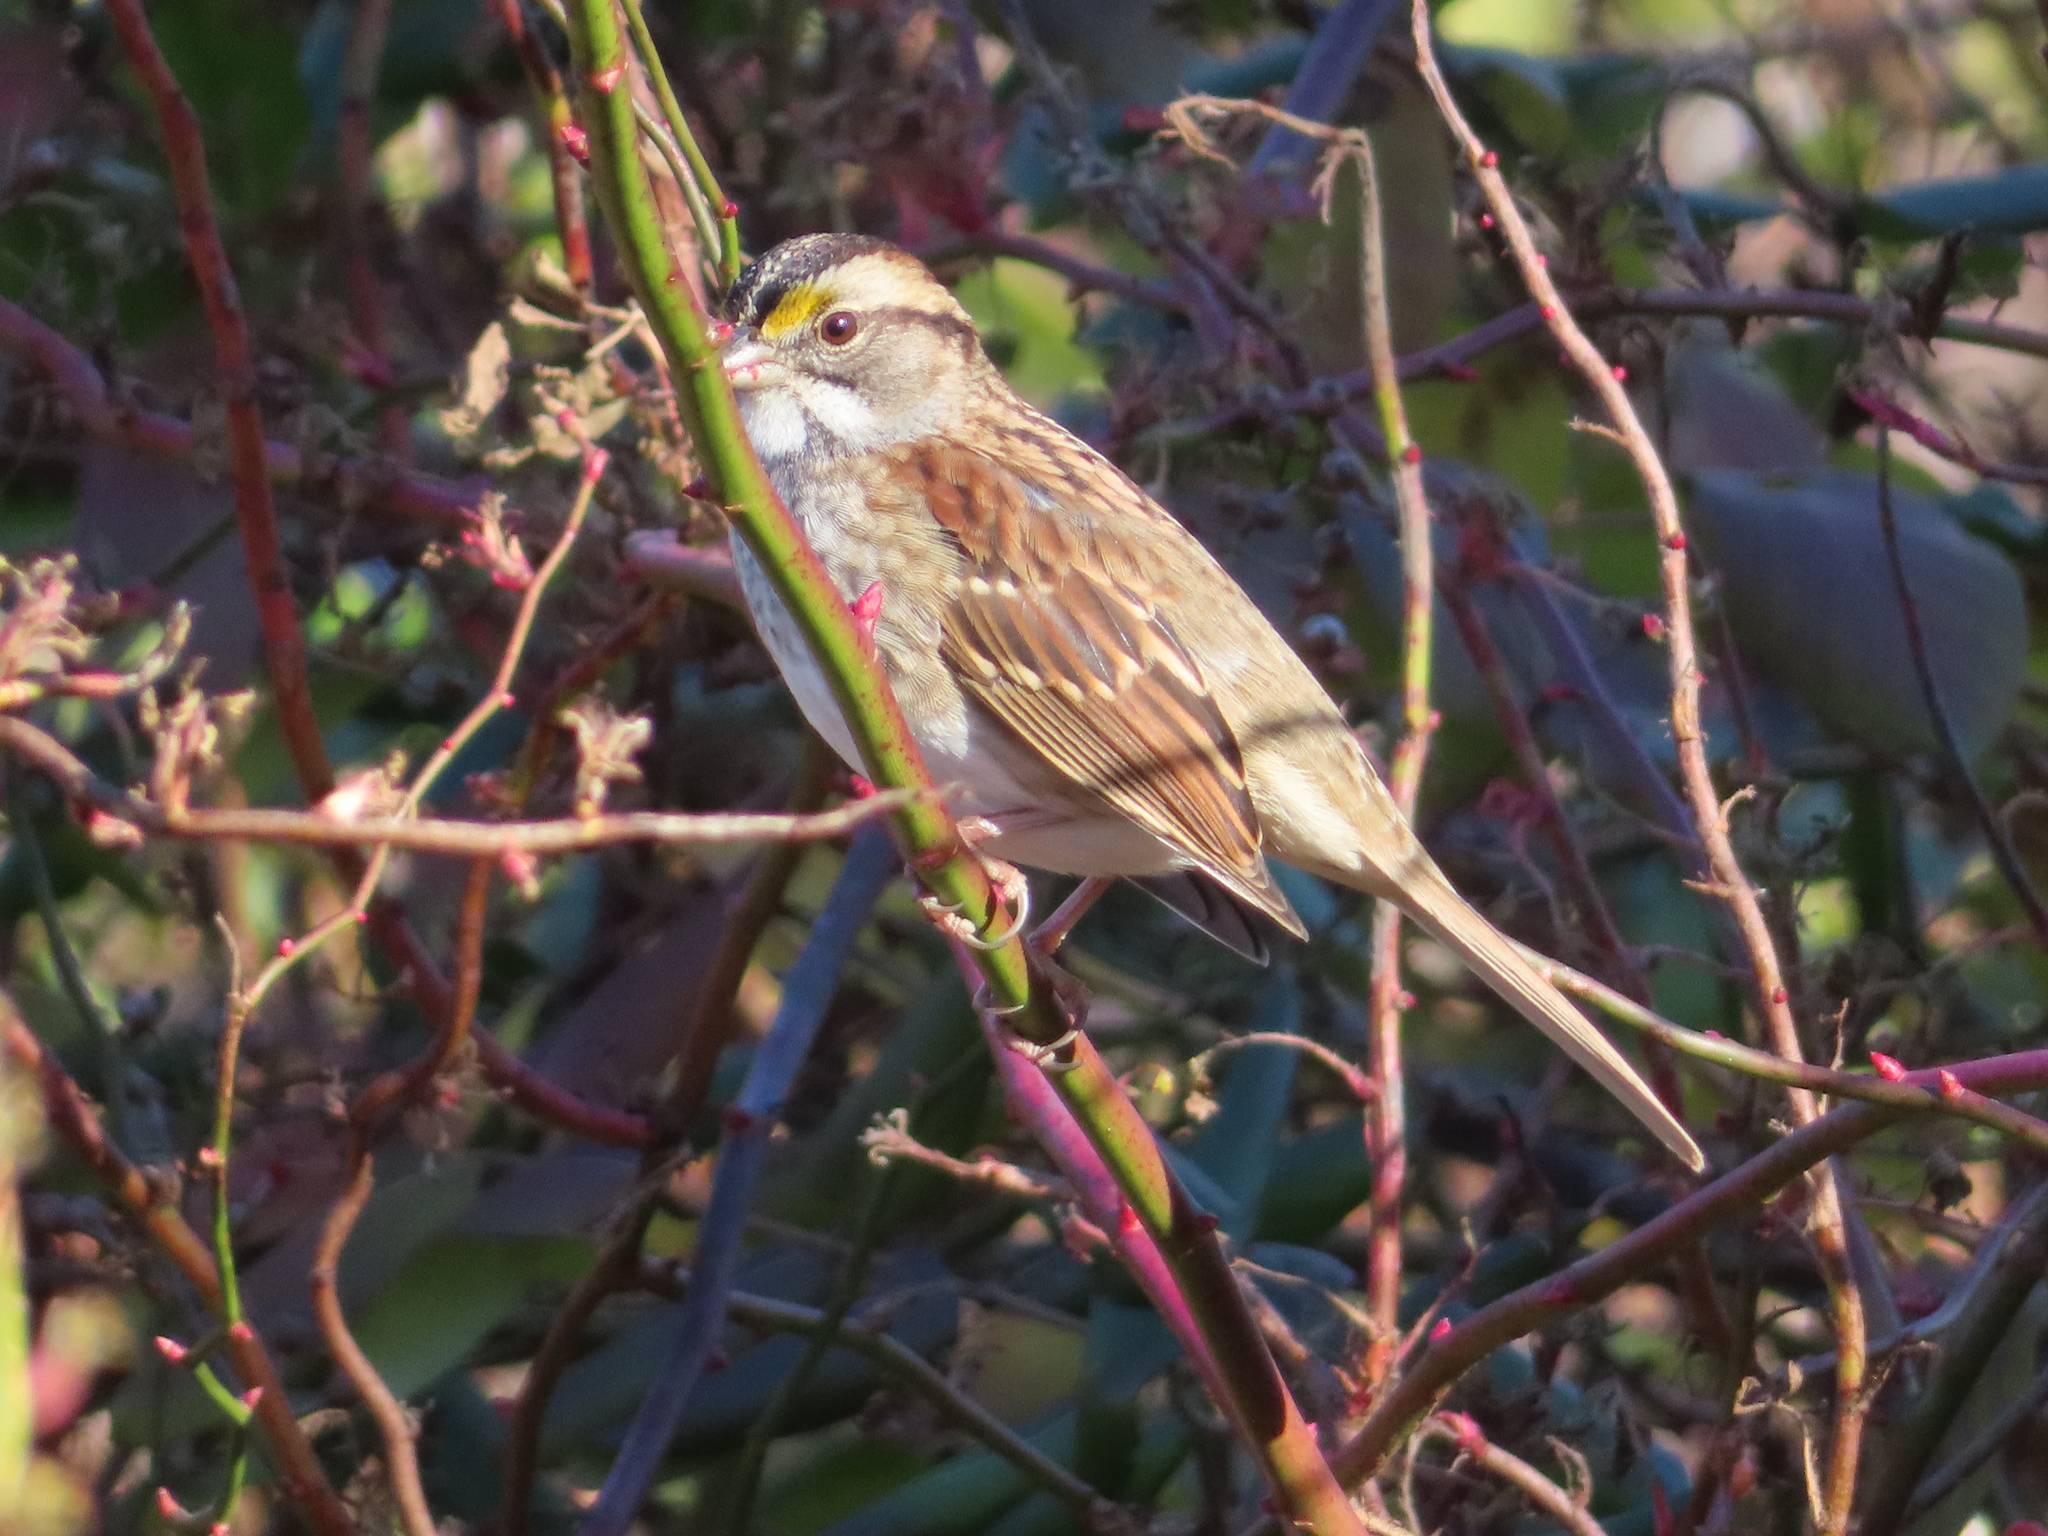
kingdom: Animalia
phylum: Chordata
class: Aves
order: Passeriformes
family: Passerellidae
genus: Zonotrichia
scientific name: Zonotrichia albicollis
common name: White-throated sparrow
